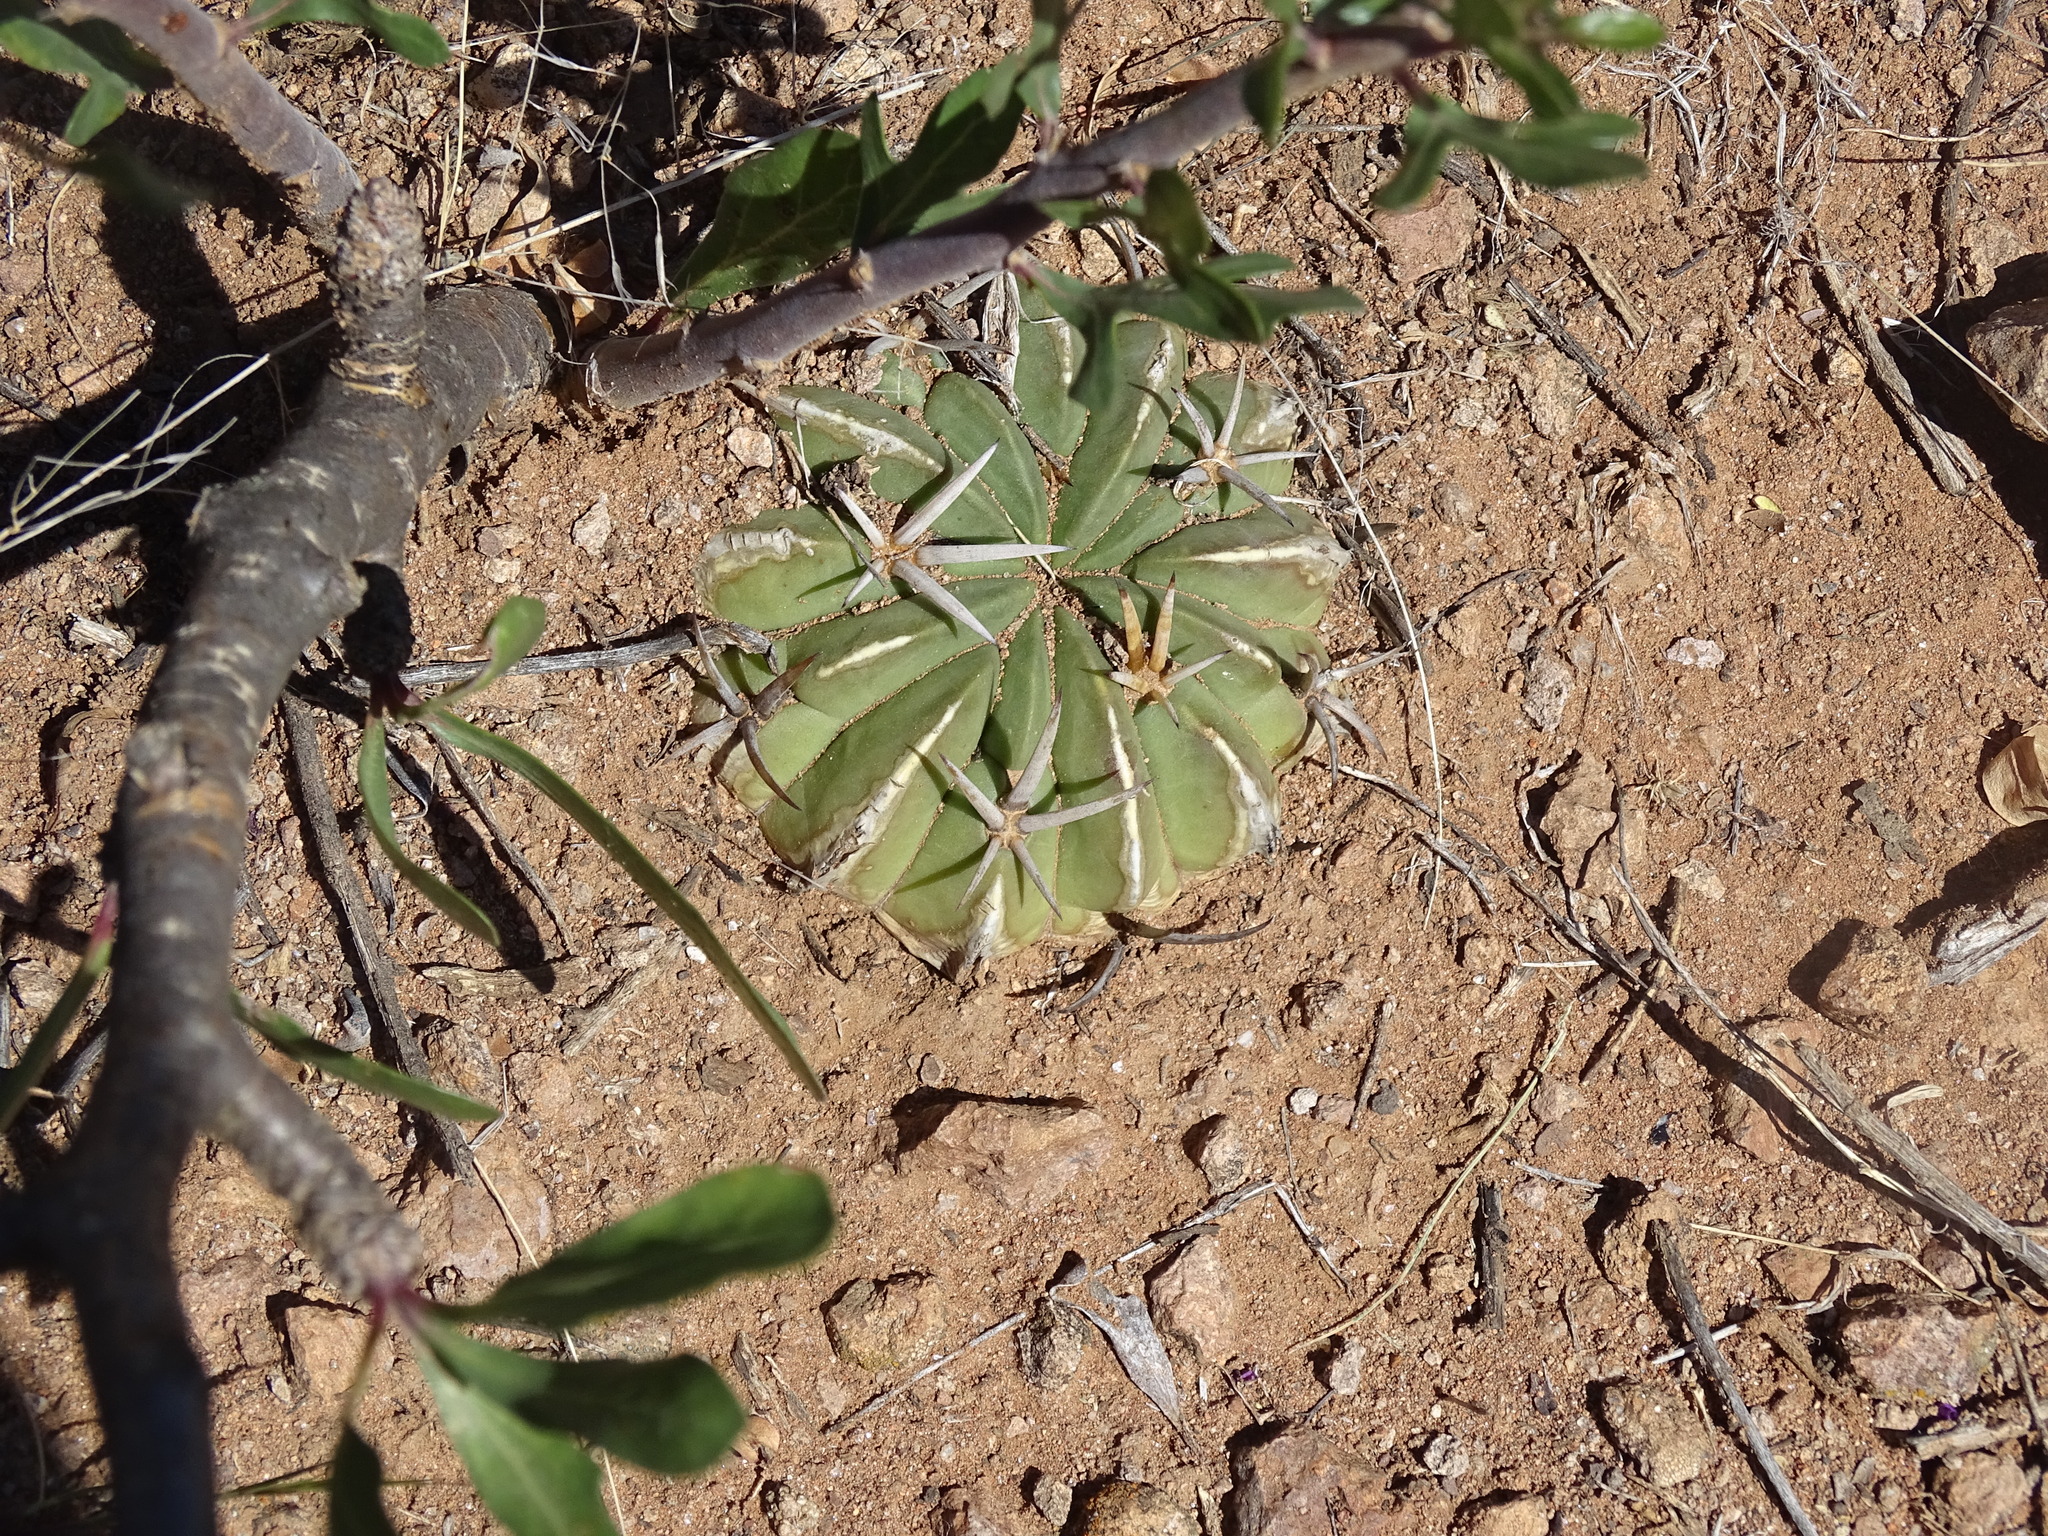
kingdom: Plantae
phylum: Tracheophyta
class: Magnoliopsida
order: Caryophyllales
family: Cactaceae
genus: Stenocactus
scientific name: Stenocactus coptonogonus
